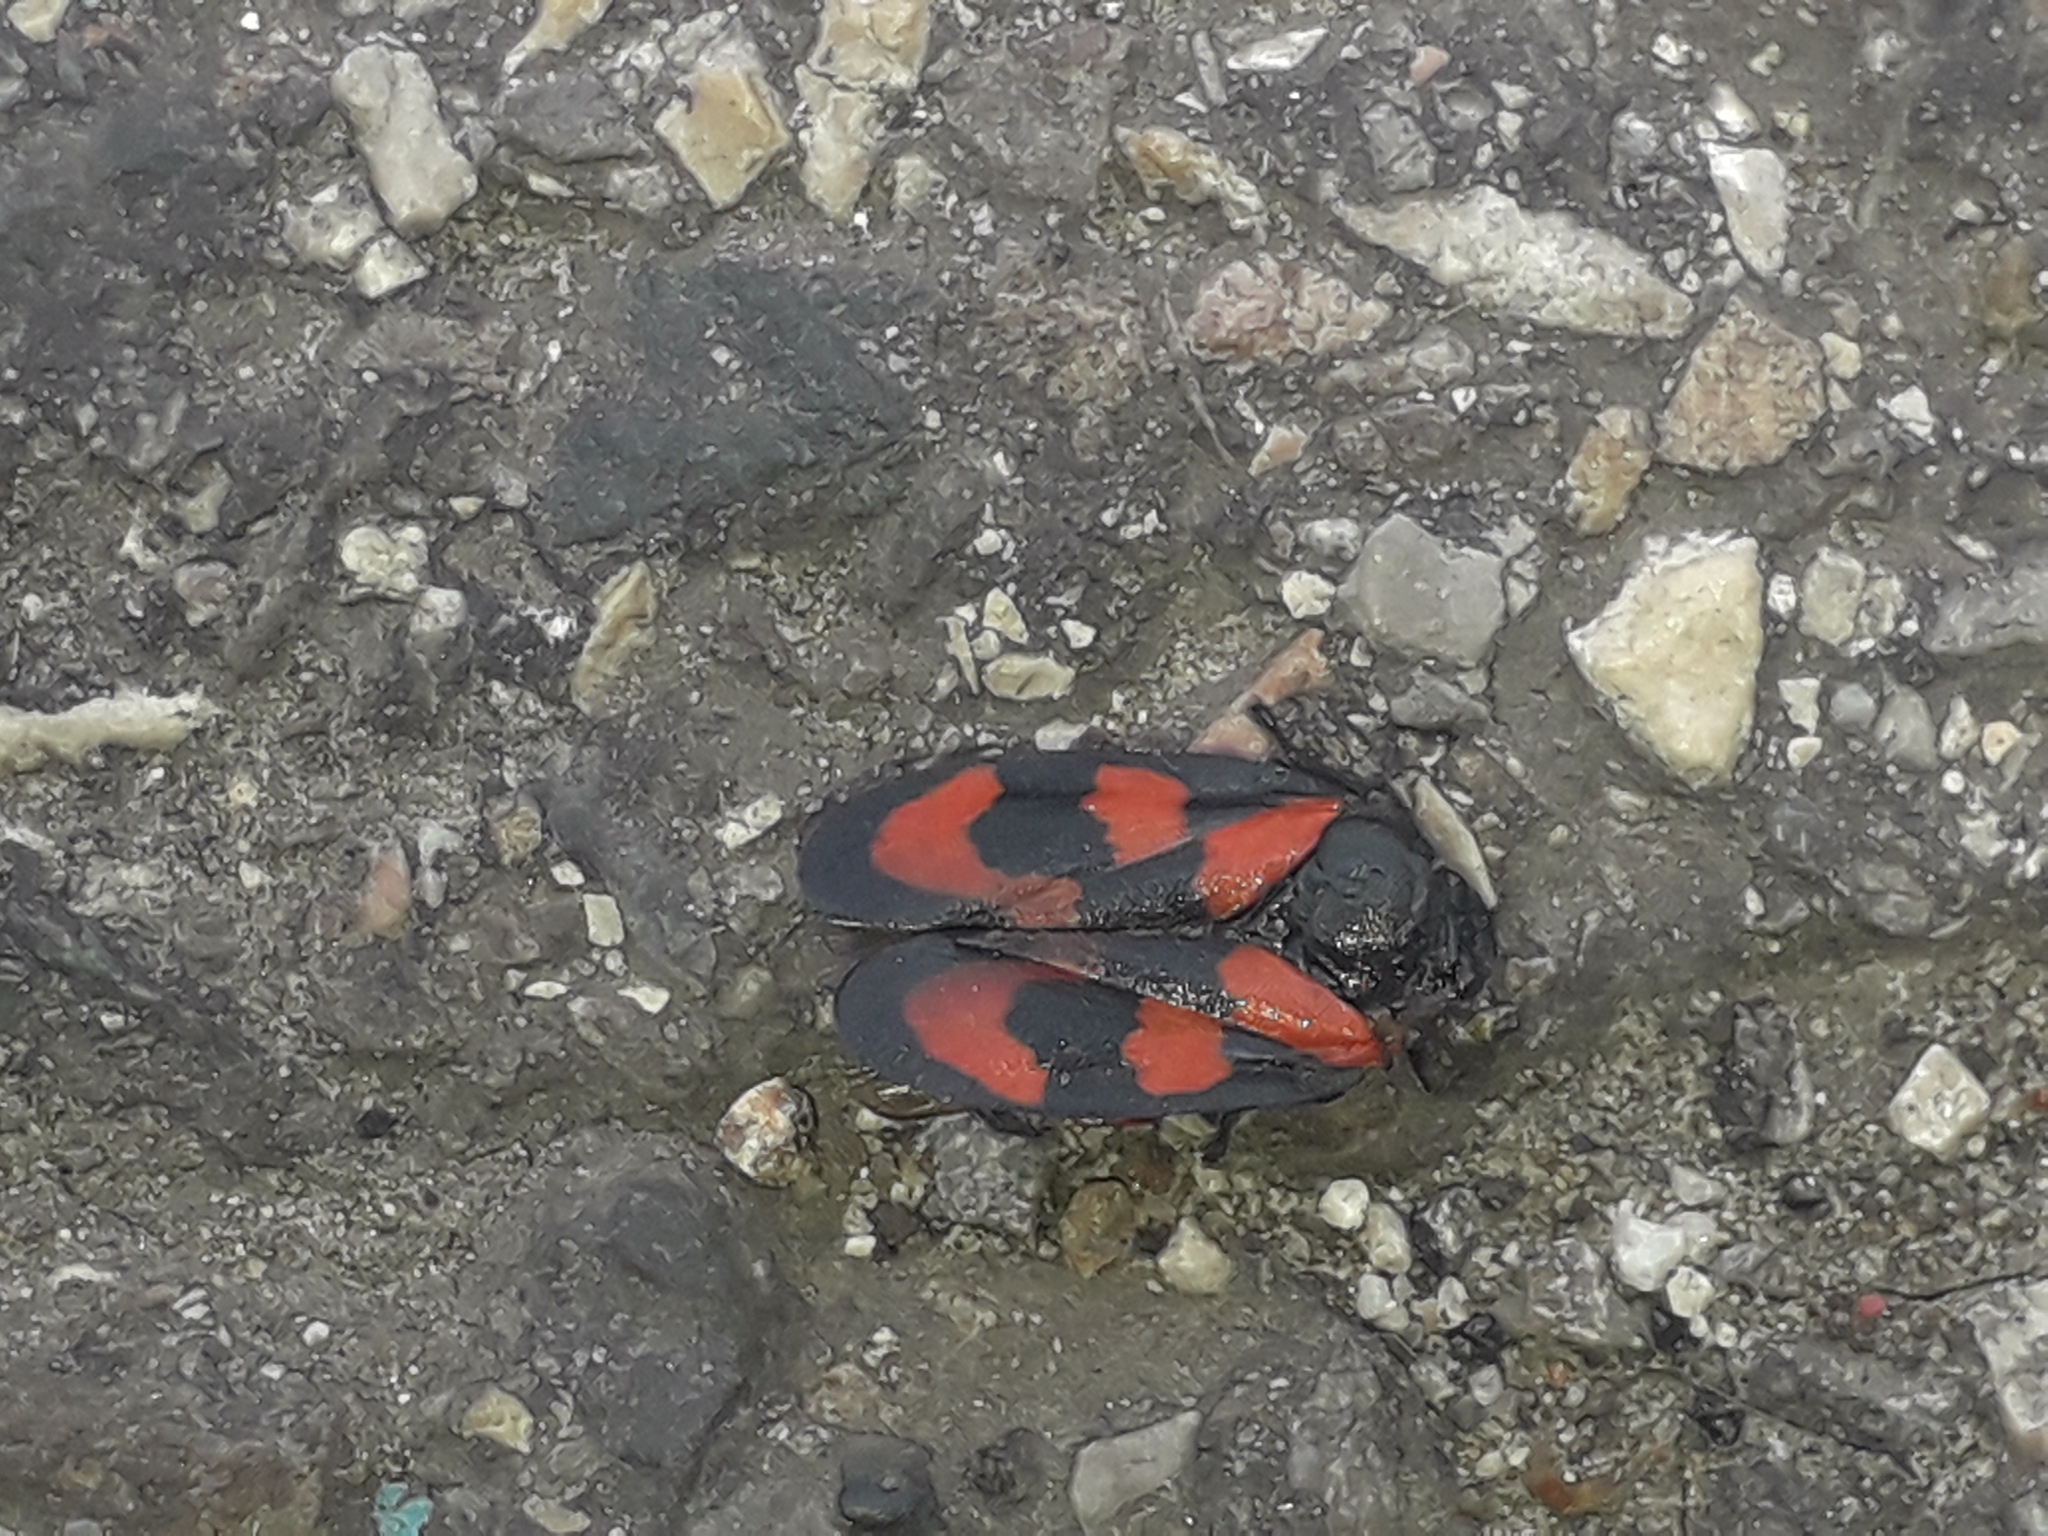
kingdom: Animalia
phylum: Arthropoda
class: Insecta
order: Hemiptera
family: Cercopidae
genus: Cercopis
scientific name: Cercopis vulnerata
